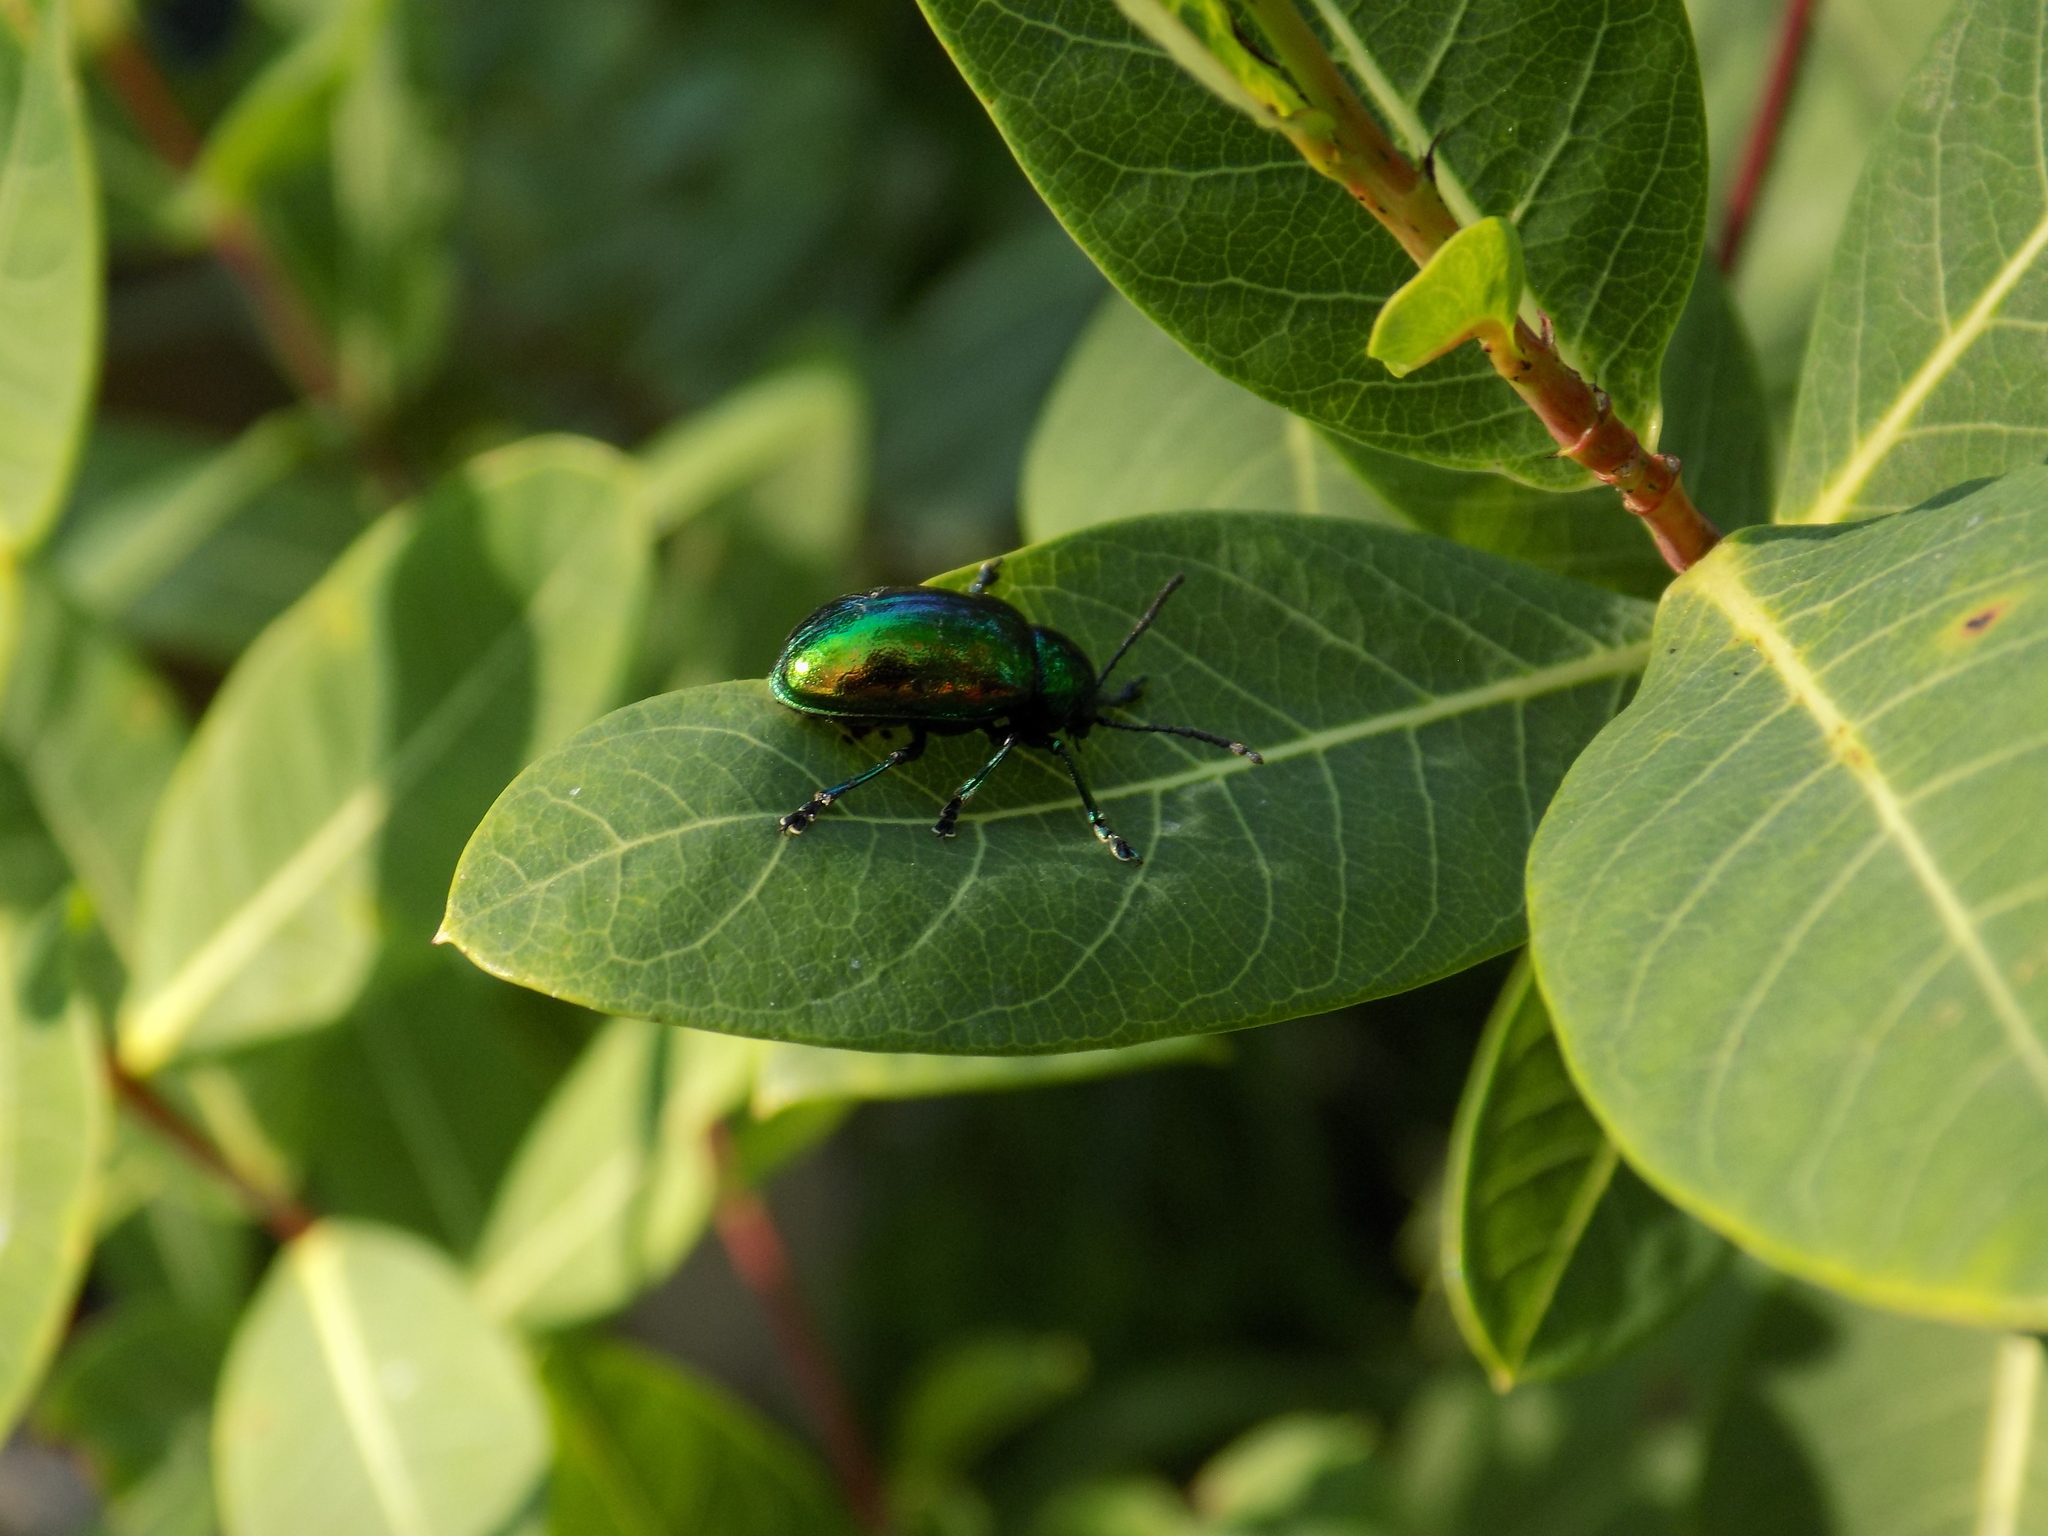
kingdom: Animalia
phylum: Arthropoda
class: Insecta
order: Coleoptera
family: Chrysomelidae
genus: Chrysochus
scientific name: Chrysochus auratus
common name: Dogbane leaf beetle
